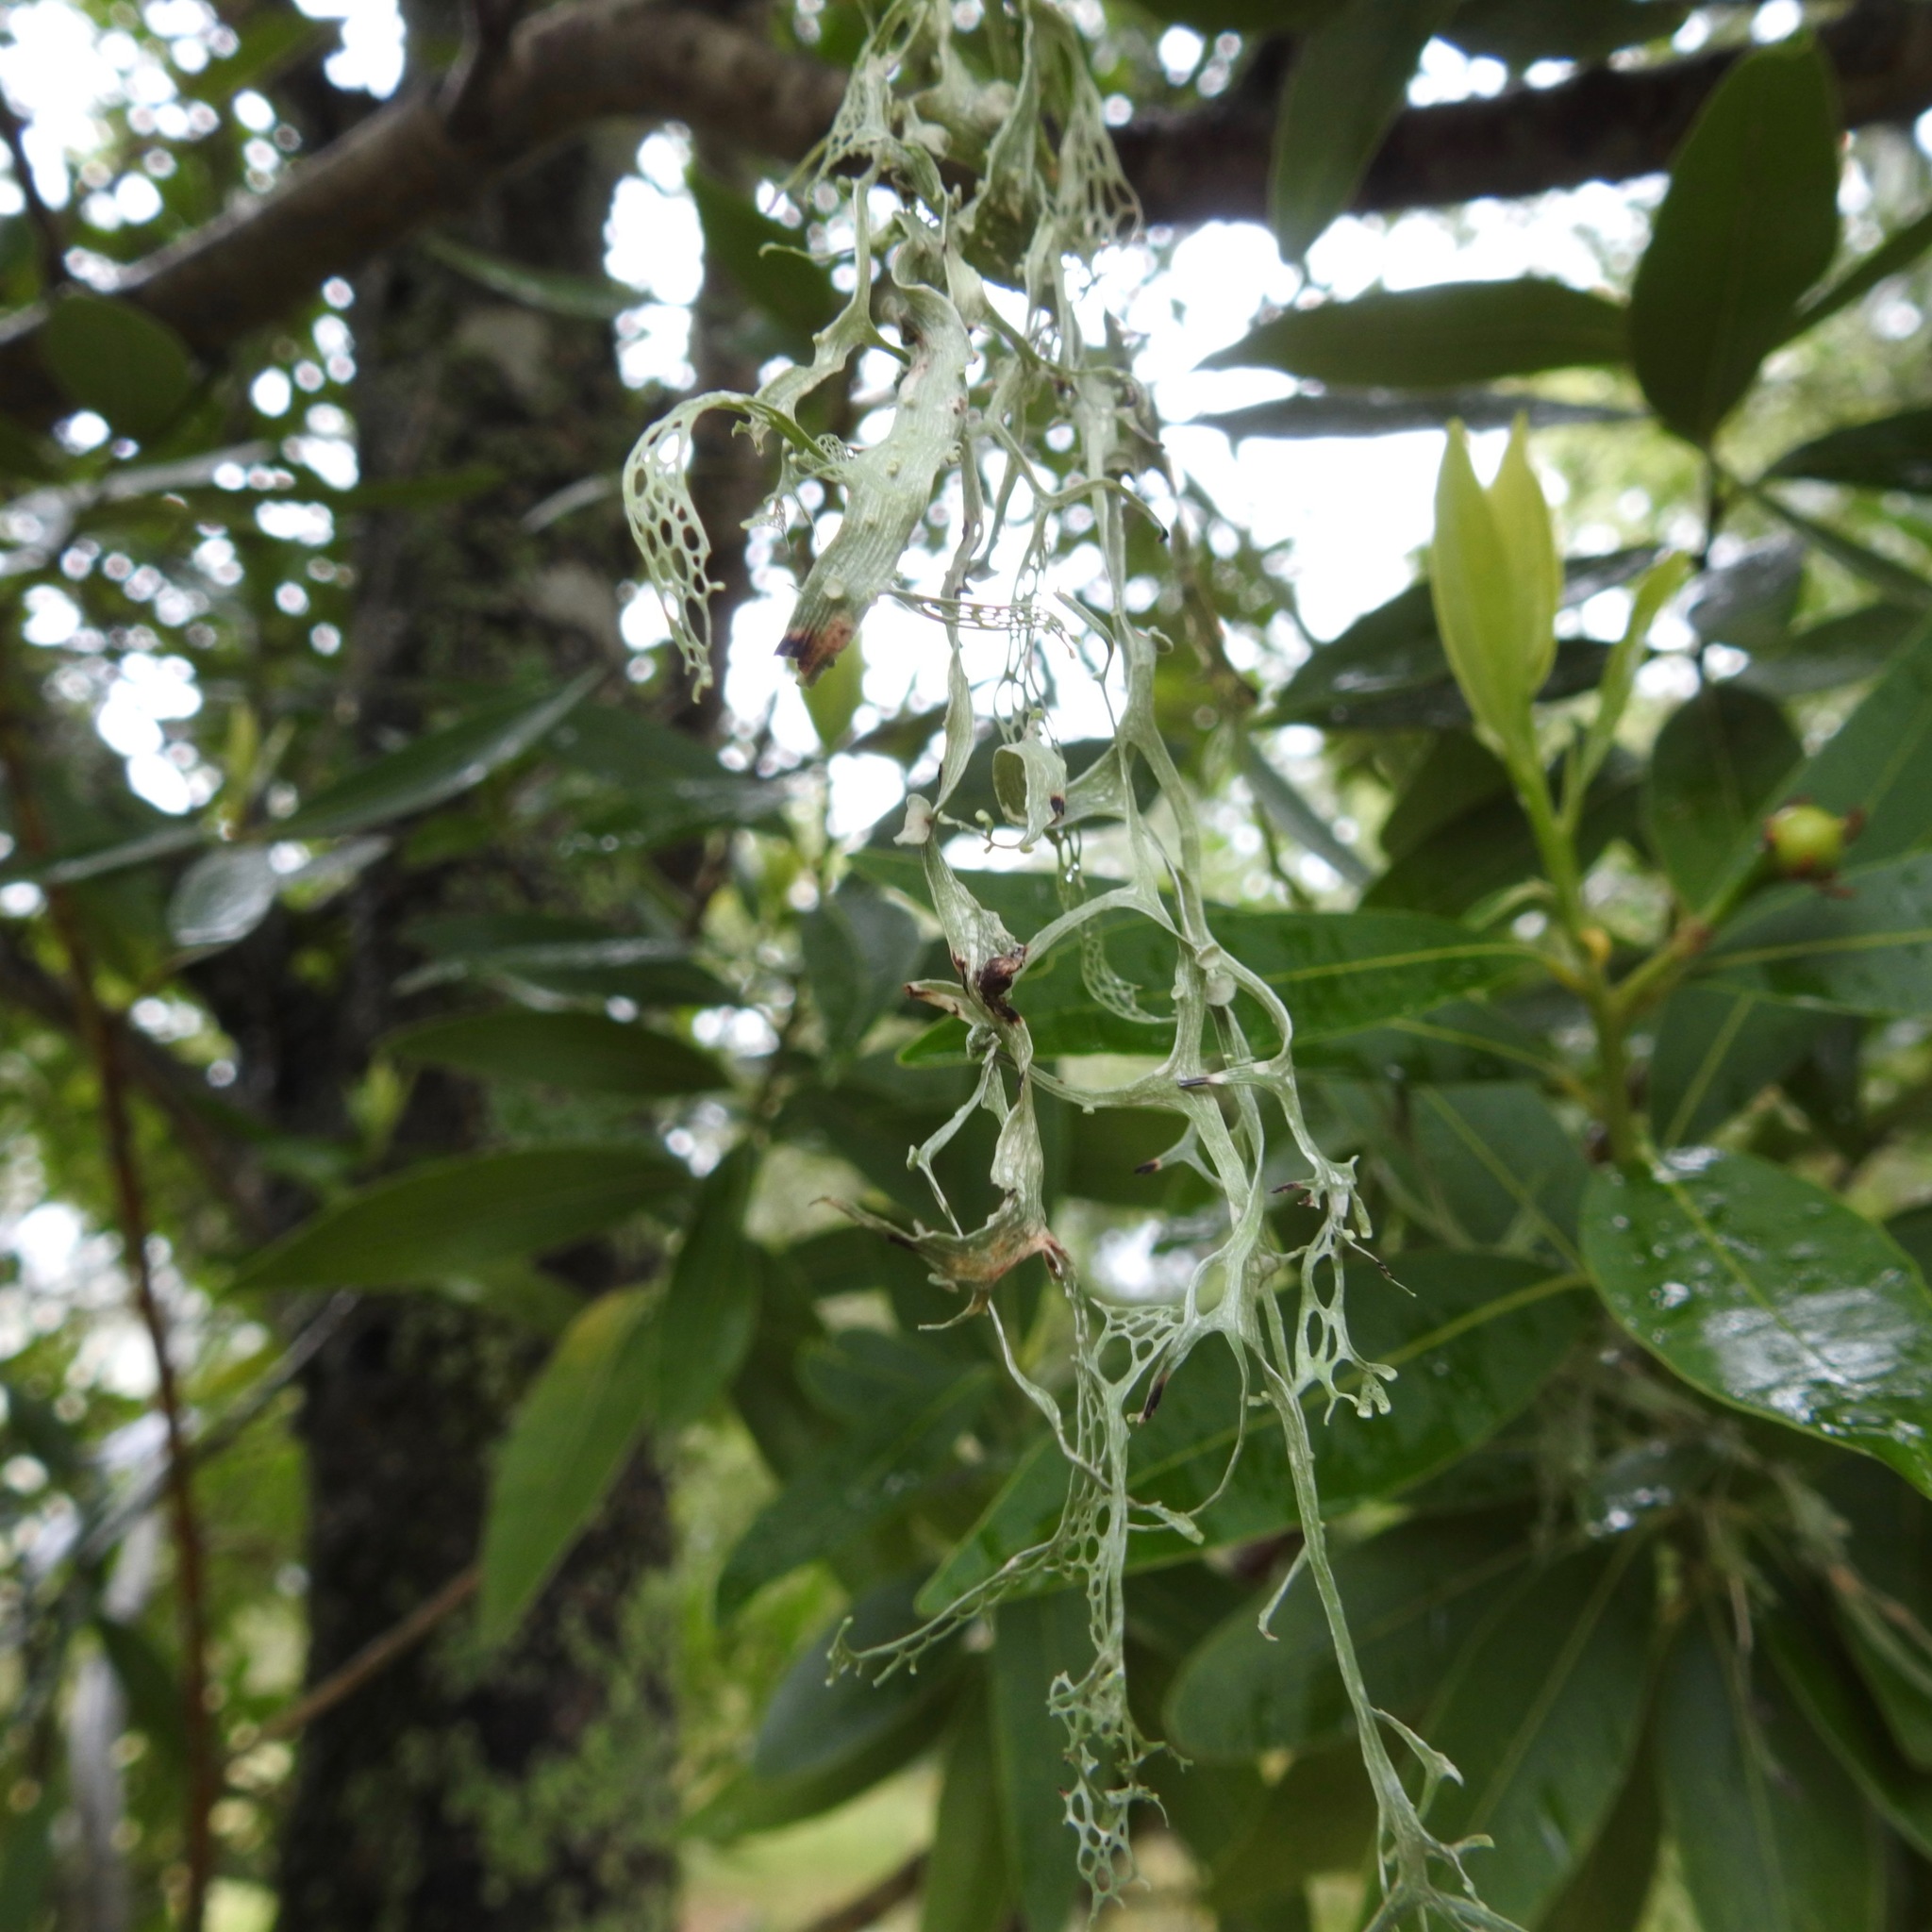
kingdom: Fungi
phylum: Ascomycota
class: Lecanoromycetes
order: Lecanorales
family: Ramalinaceae
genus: Ramalina
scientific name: Ramalina menziesii
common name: Lace lichen
